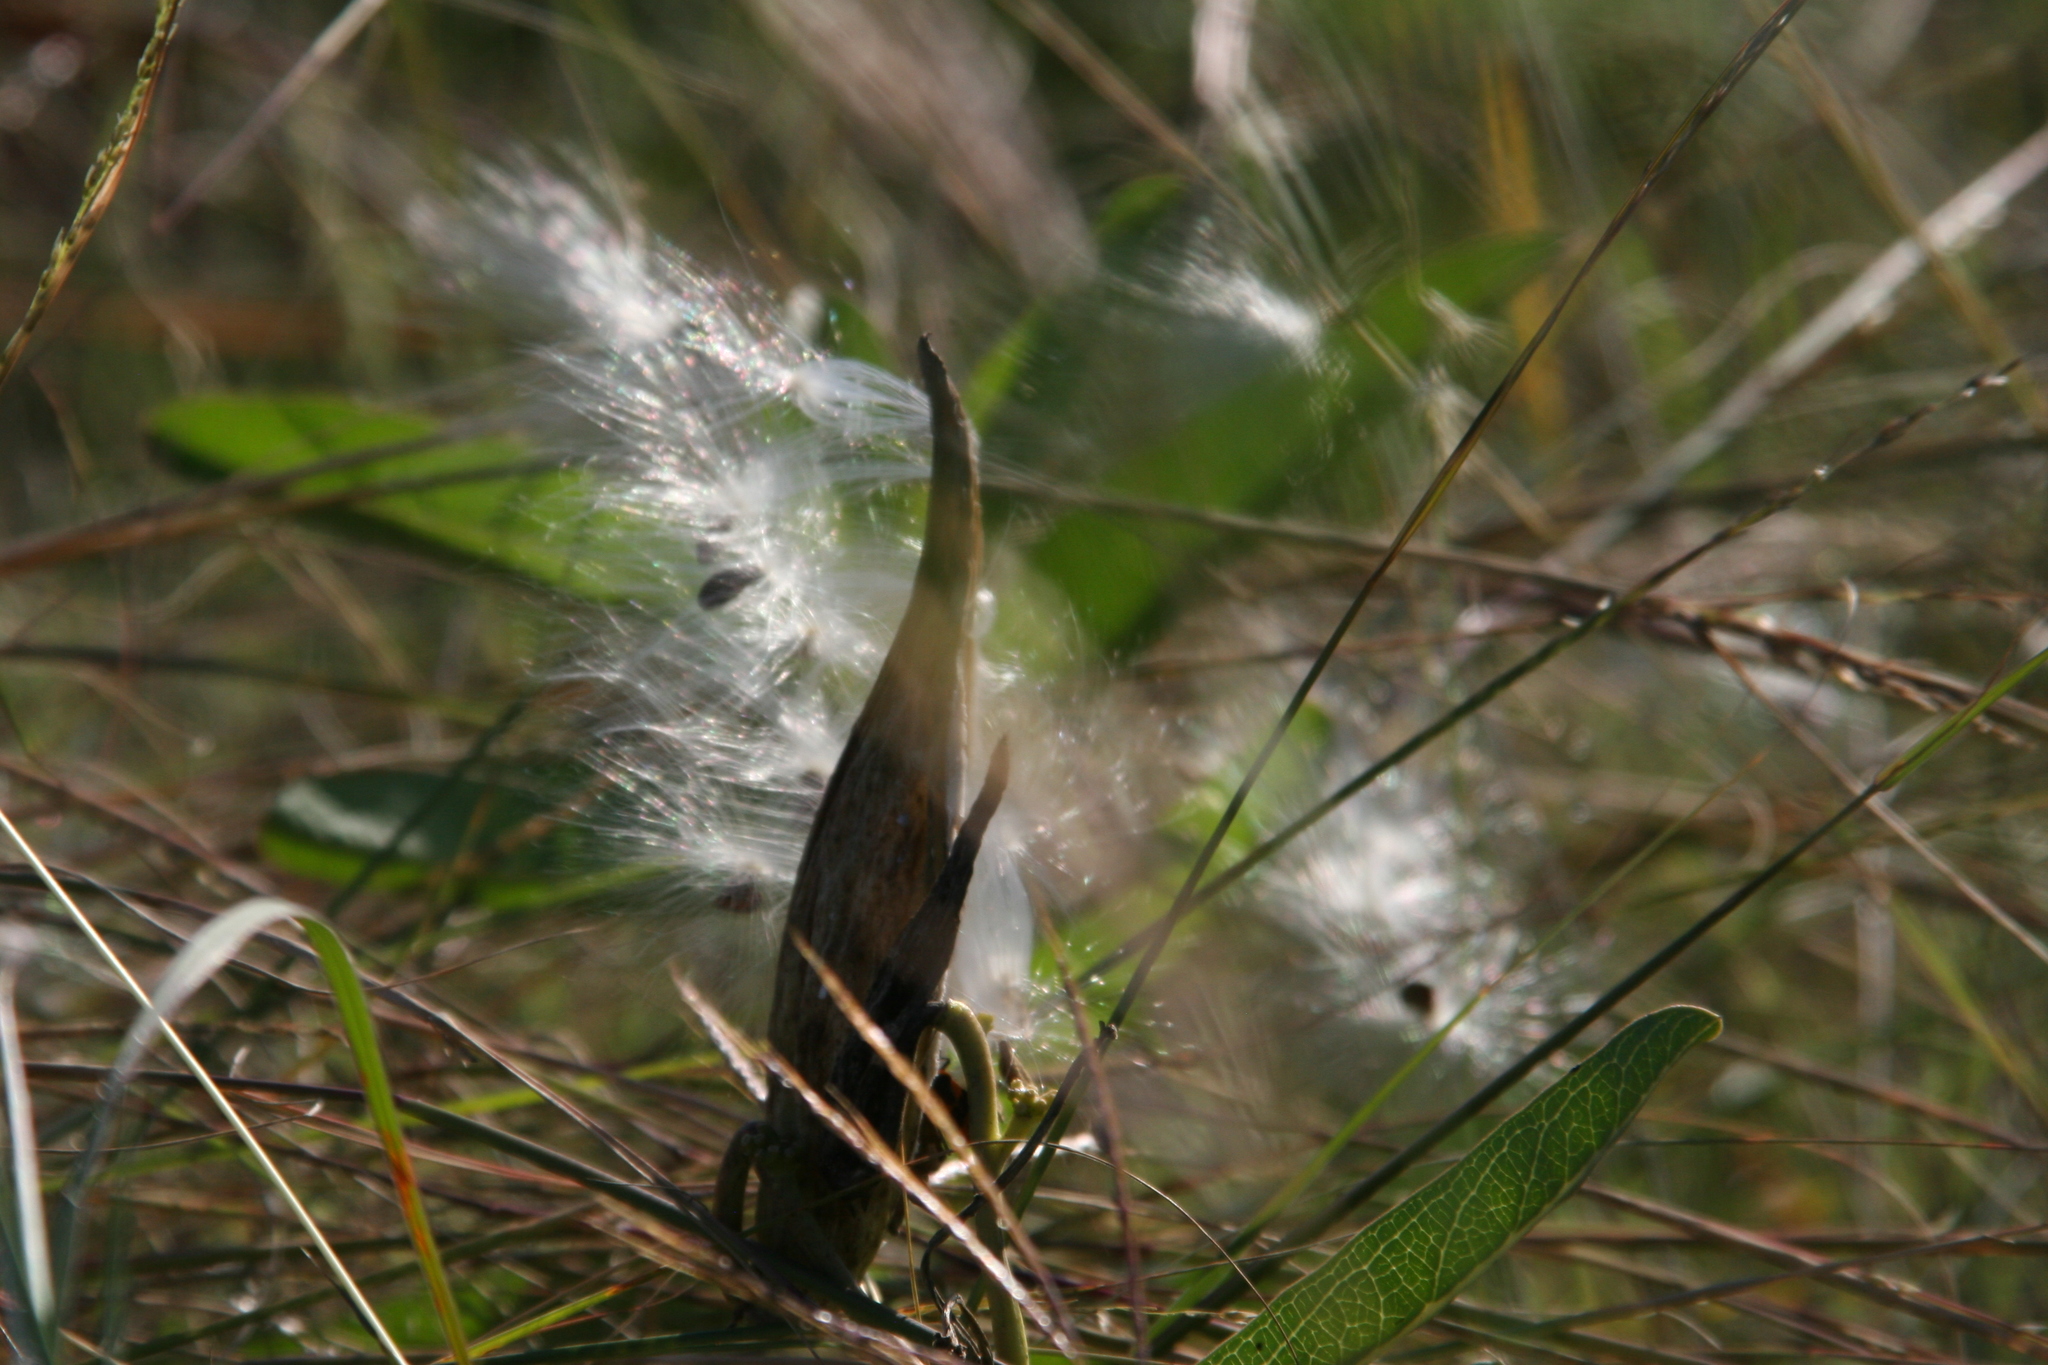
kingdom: Plantae
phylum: Tracheophyta
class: Magnoliopsida
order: Gentianales
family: Apocynaceae
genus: Asclepias
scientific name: Asclepias viridis
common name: Antelope-horns
